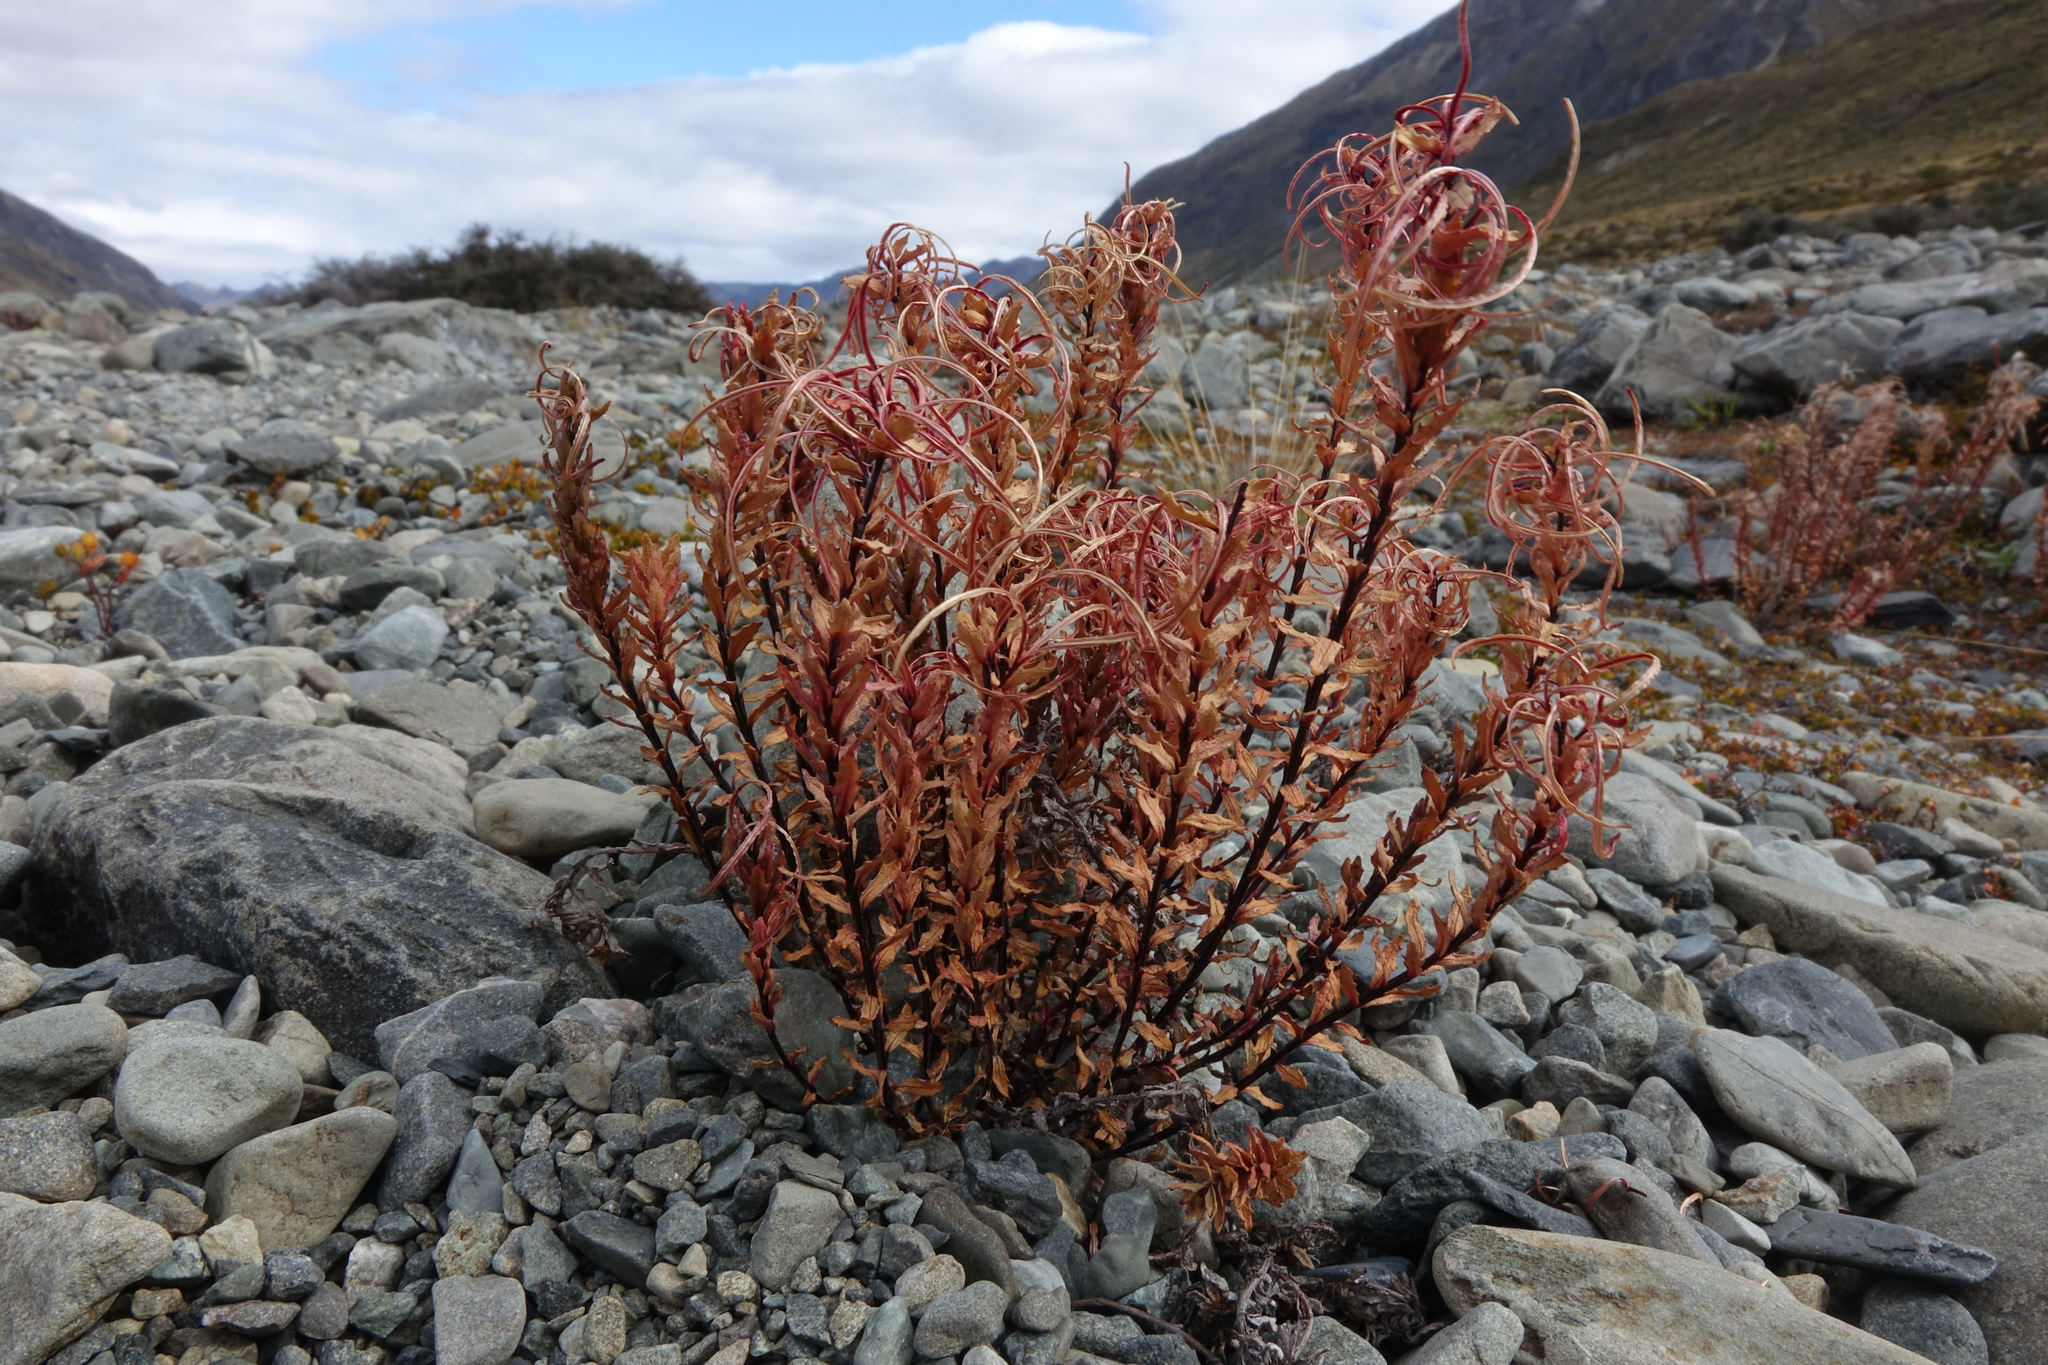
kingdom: Plantae
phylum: Tracheophyta
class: Magnoliopsida
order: Myrtales
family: Onagraceae
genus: Epilobium
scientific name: Epilobium melanocaulon
